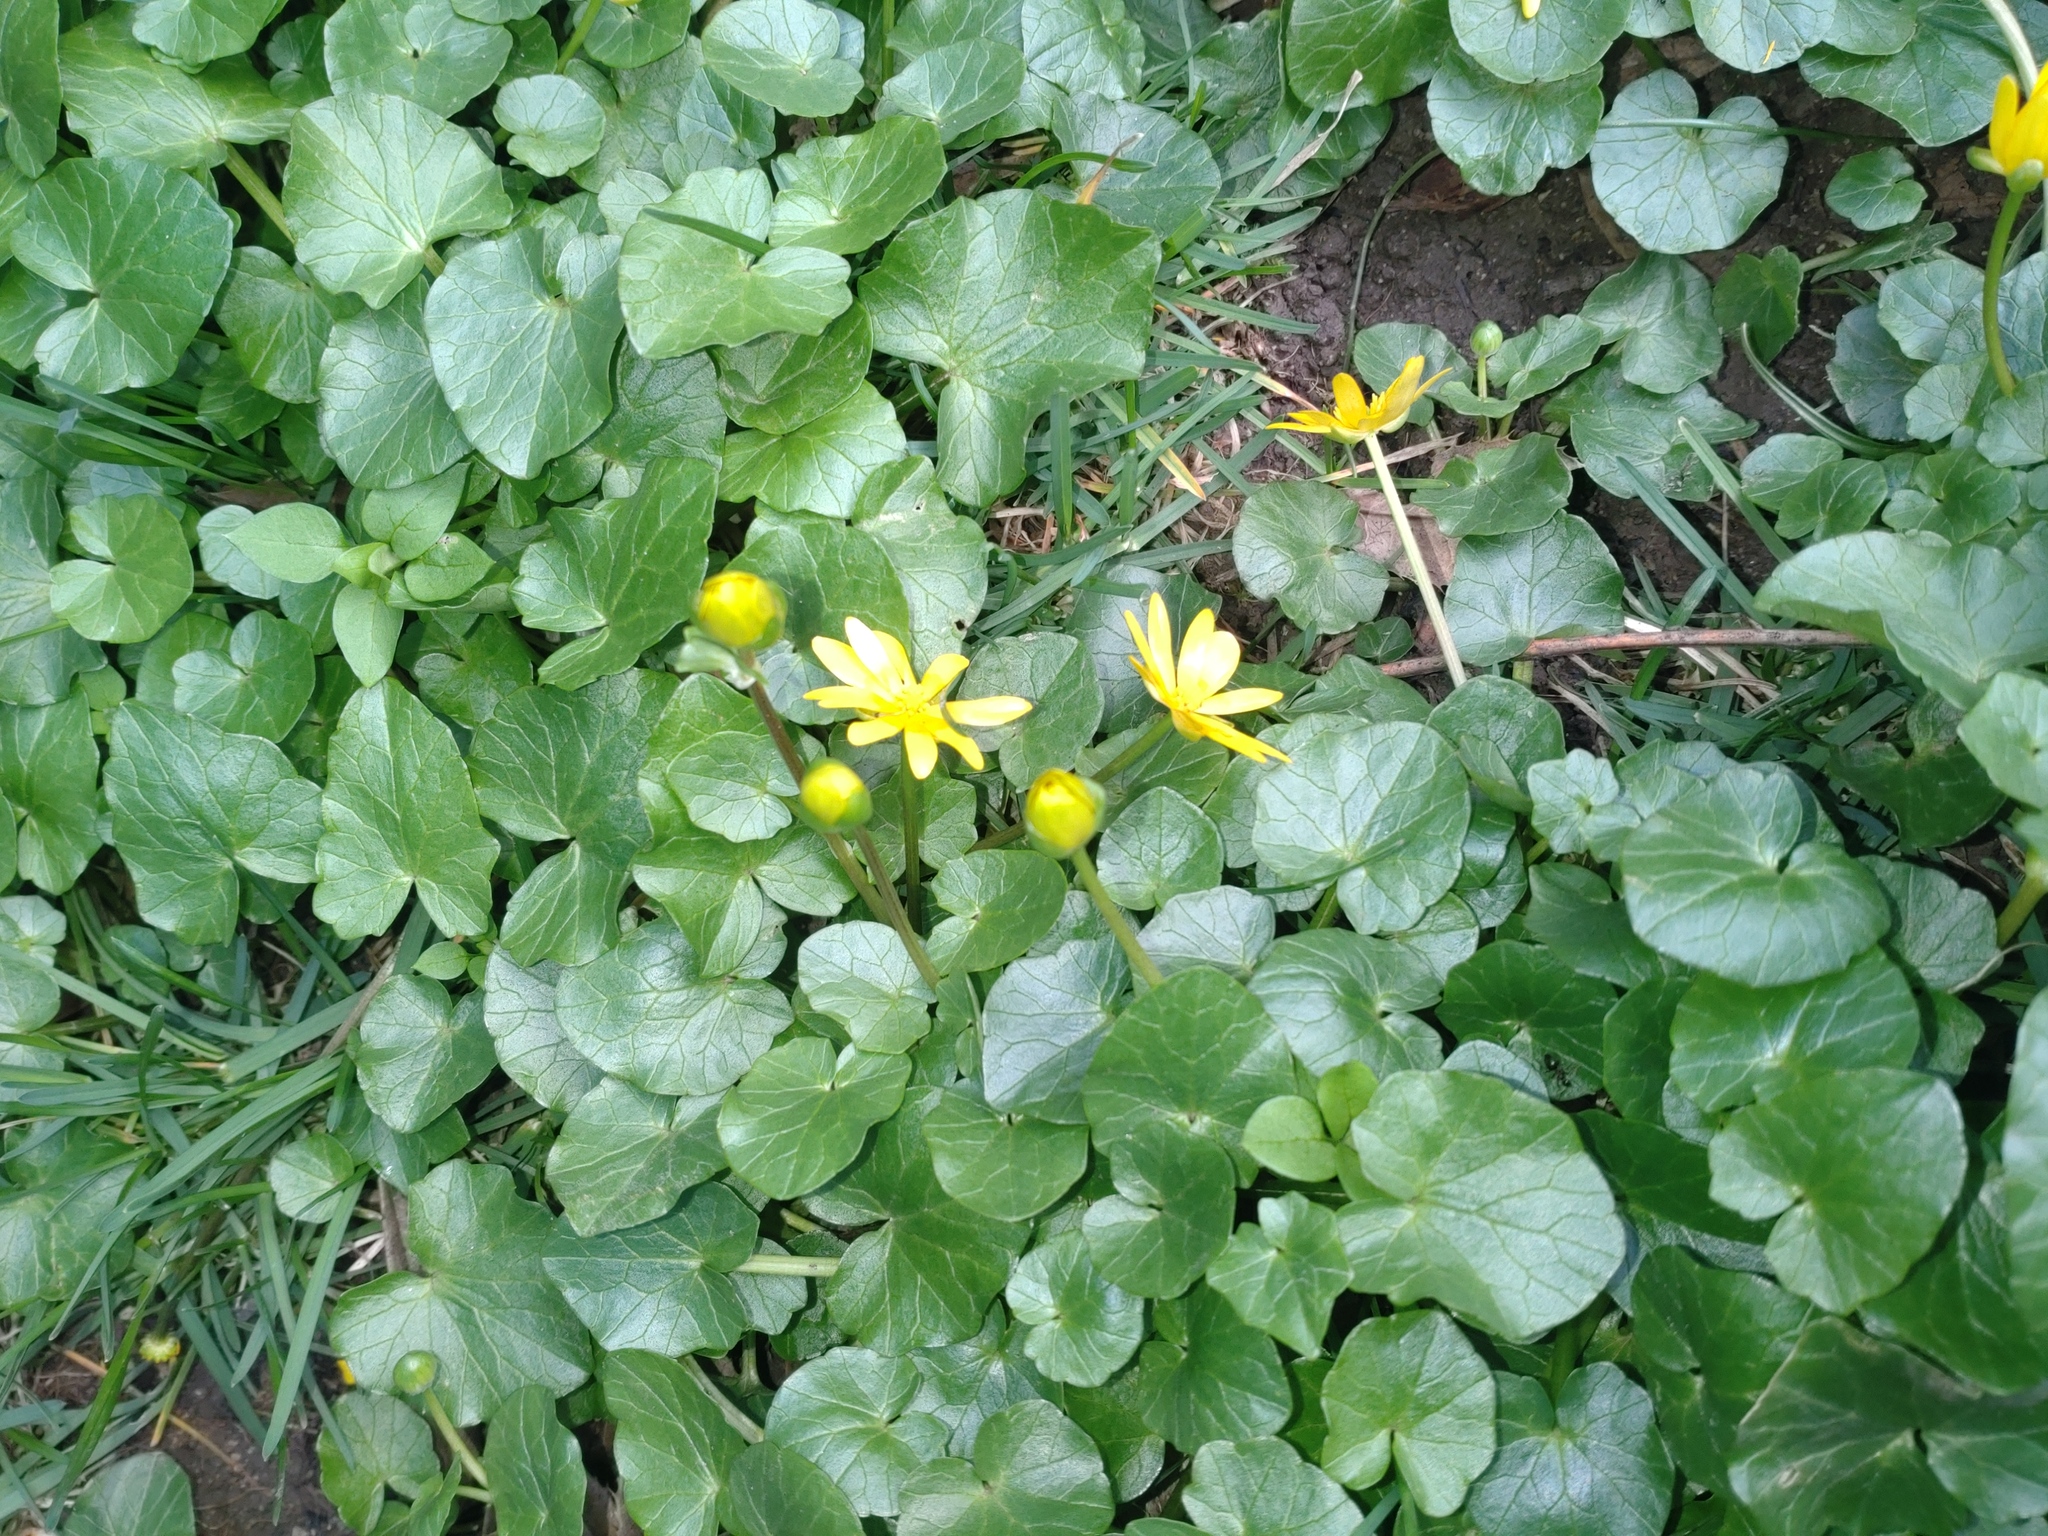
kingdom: Plantae
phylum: Tracheophyta
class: Magnoliopsida
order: Ranunculales
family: Ranunculaceae
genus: Ficaria
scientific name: Ficaria verna
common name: Lesser celandine
